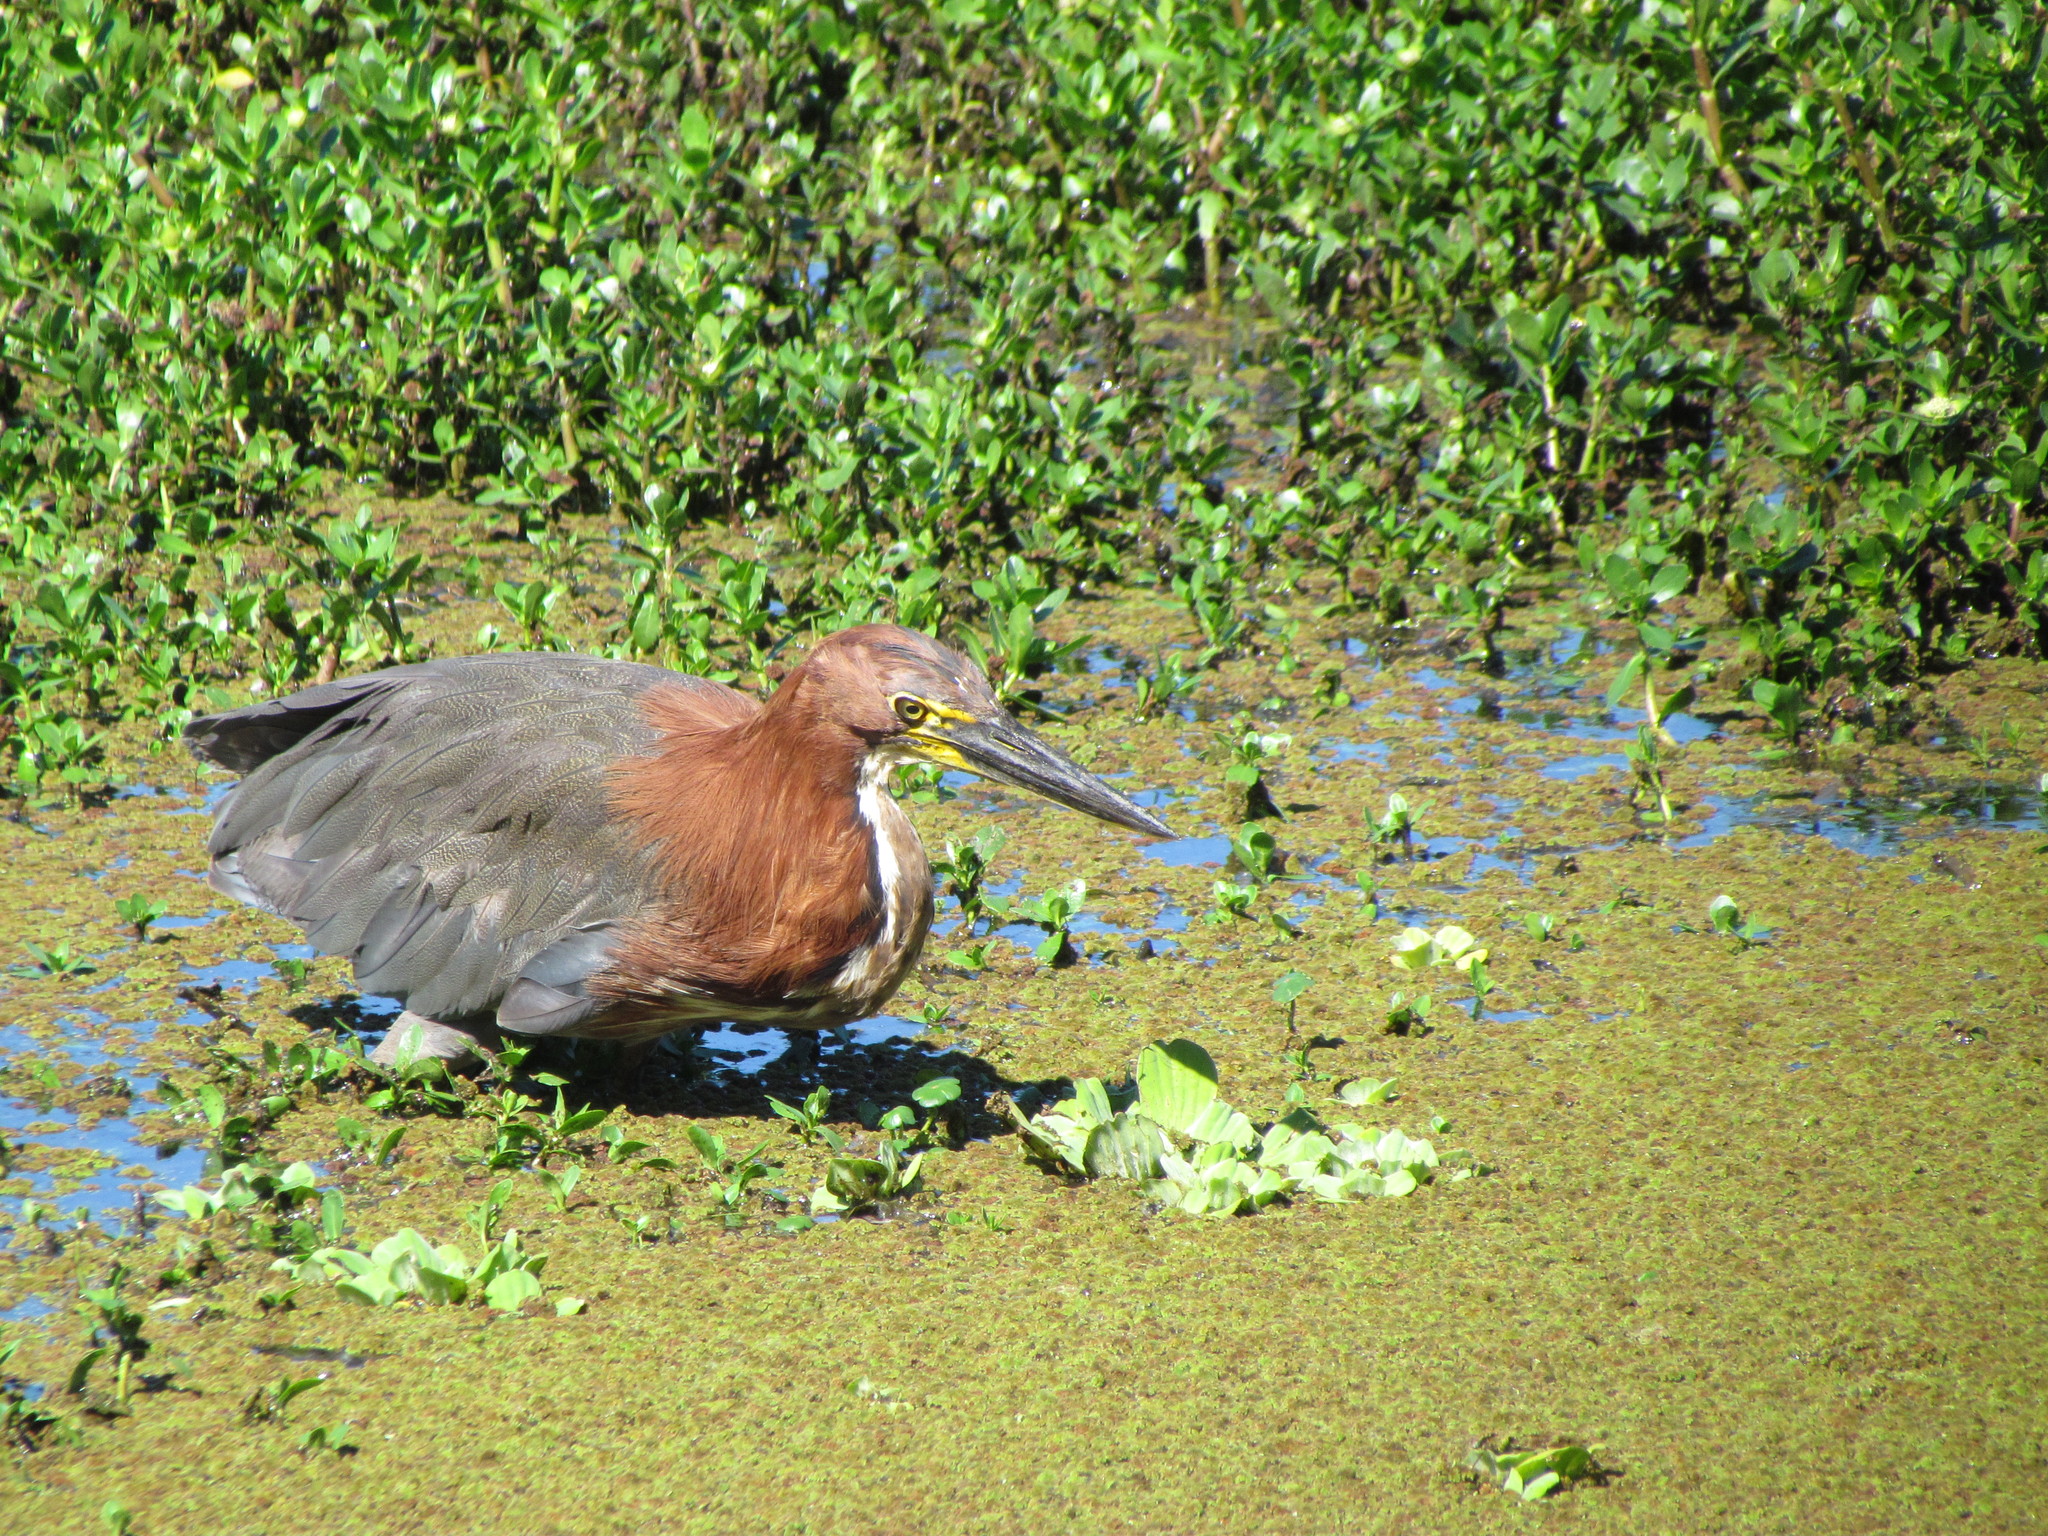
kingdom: Animalia
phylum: Chordata
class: Aves
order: Pelecaniformes
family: Ardeidae
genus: Tigrisoma
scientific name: Tigrisoma lineatum
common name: Rufescent tiger-heron
